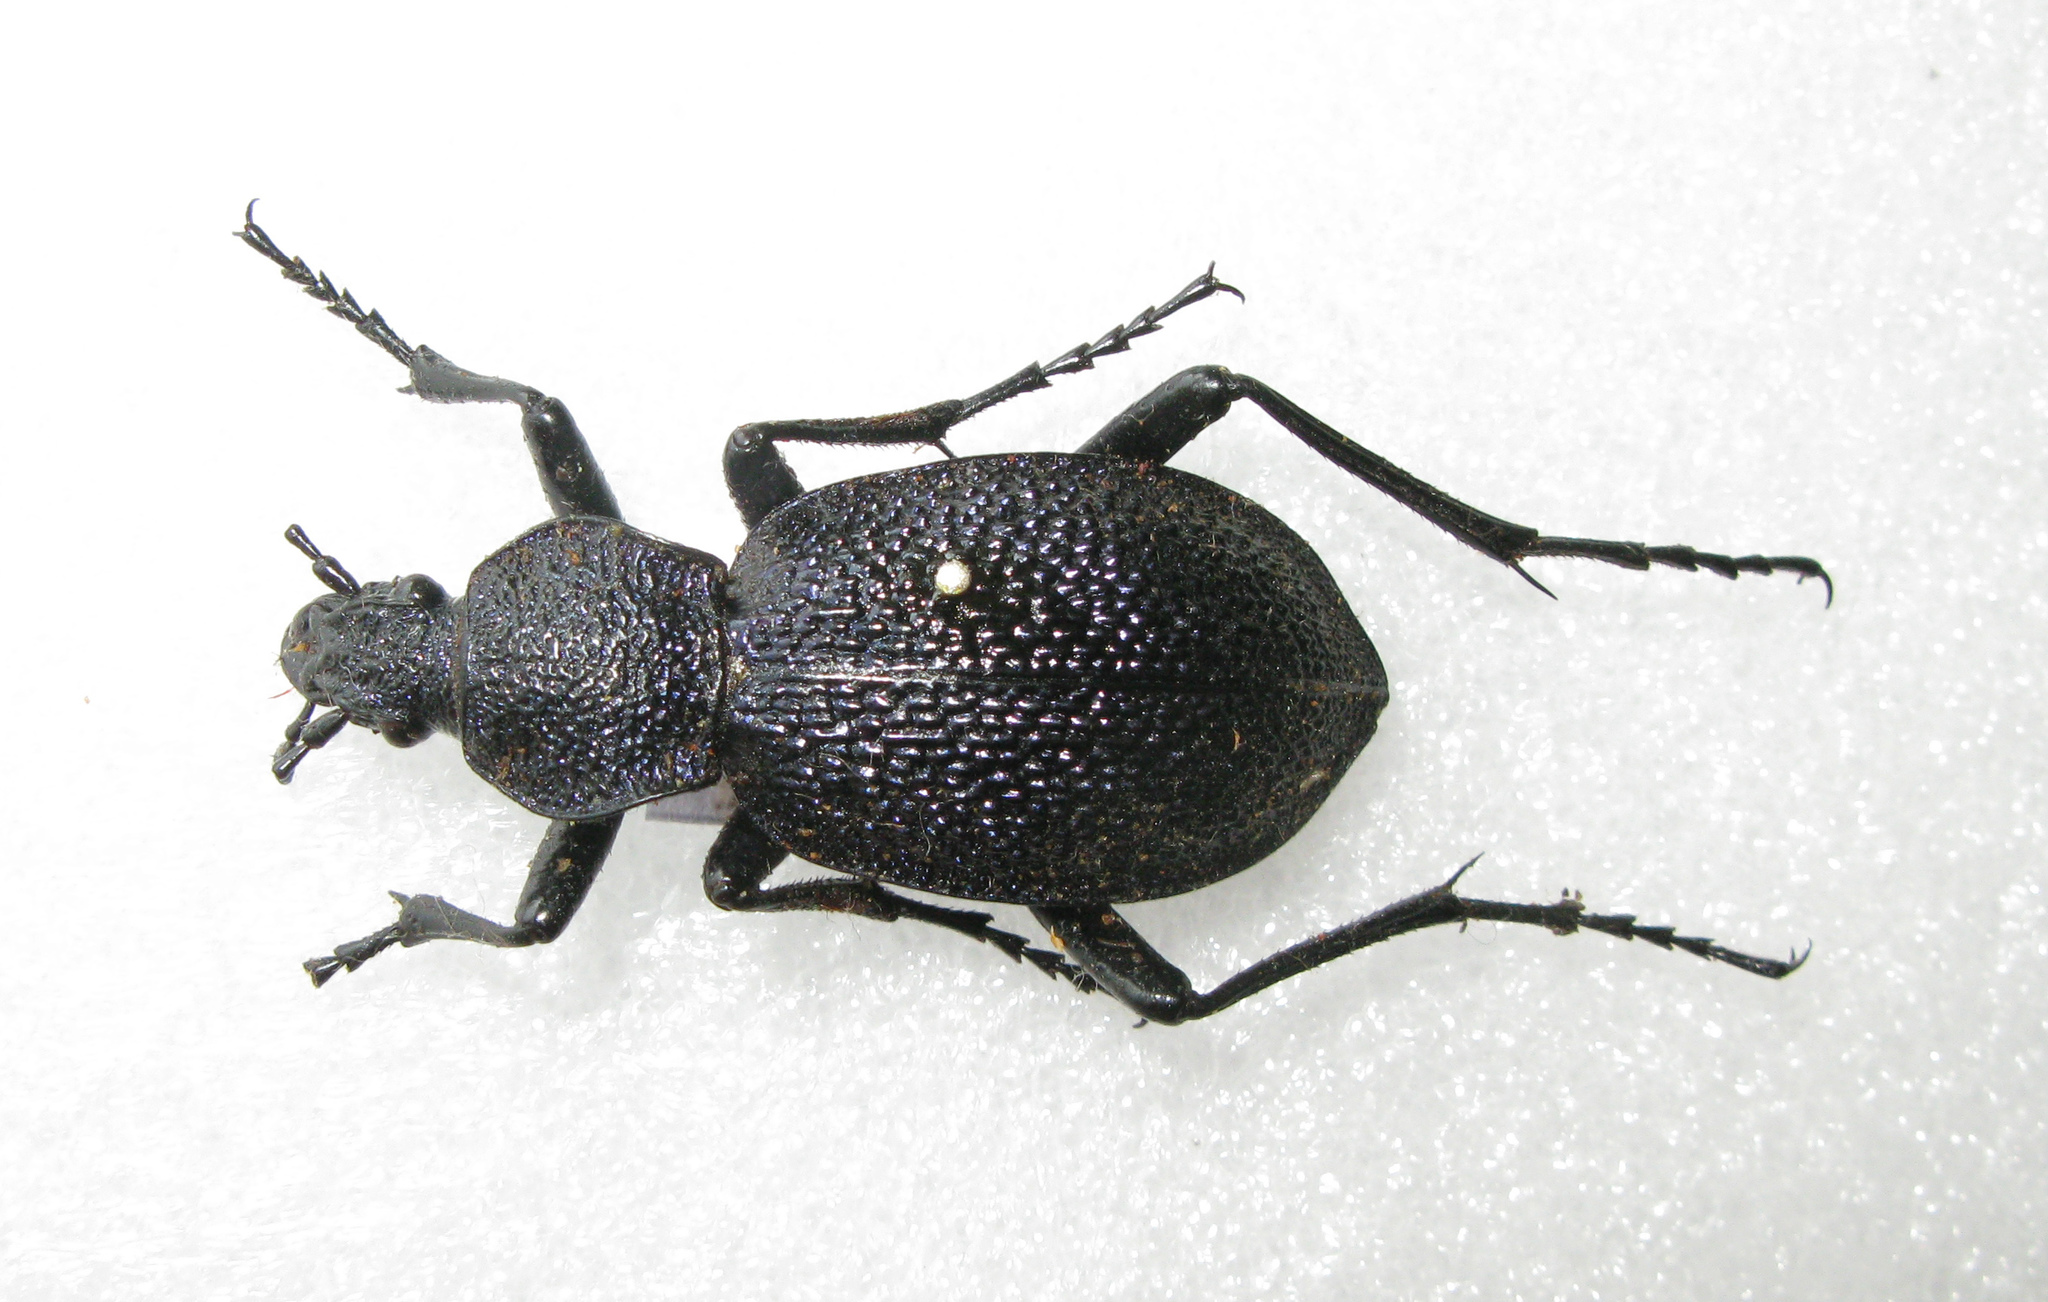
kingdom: Animalia
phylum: Arthropoda
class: Insecta
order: Coleoptera
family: Carabidae
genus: Carabus
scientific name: Carabus scabrosus
